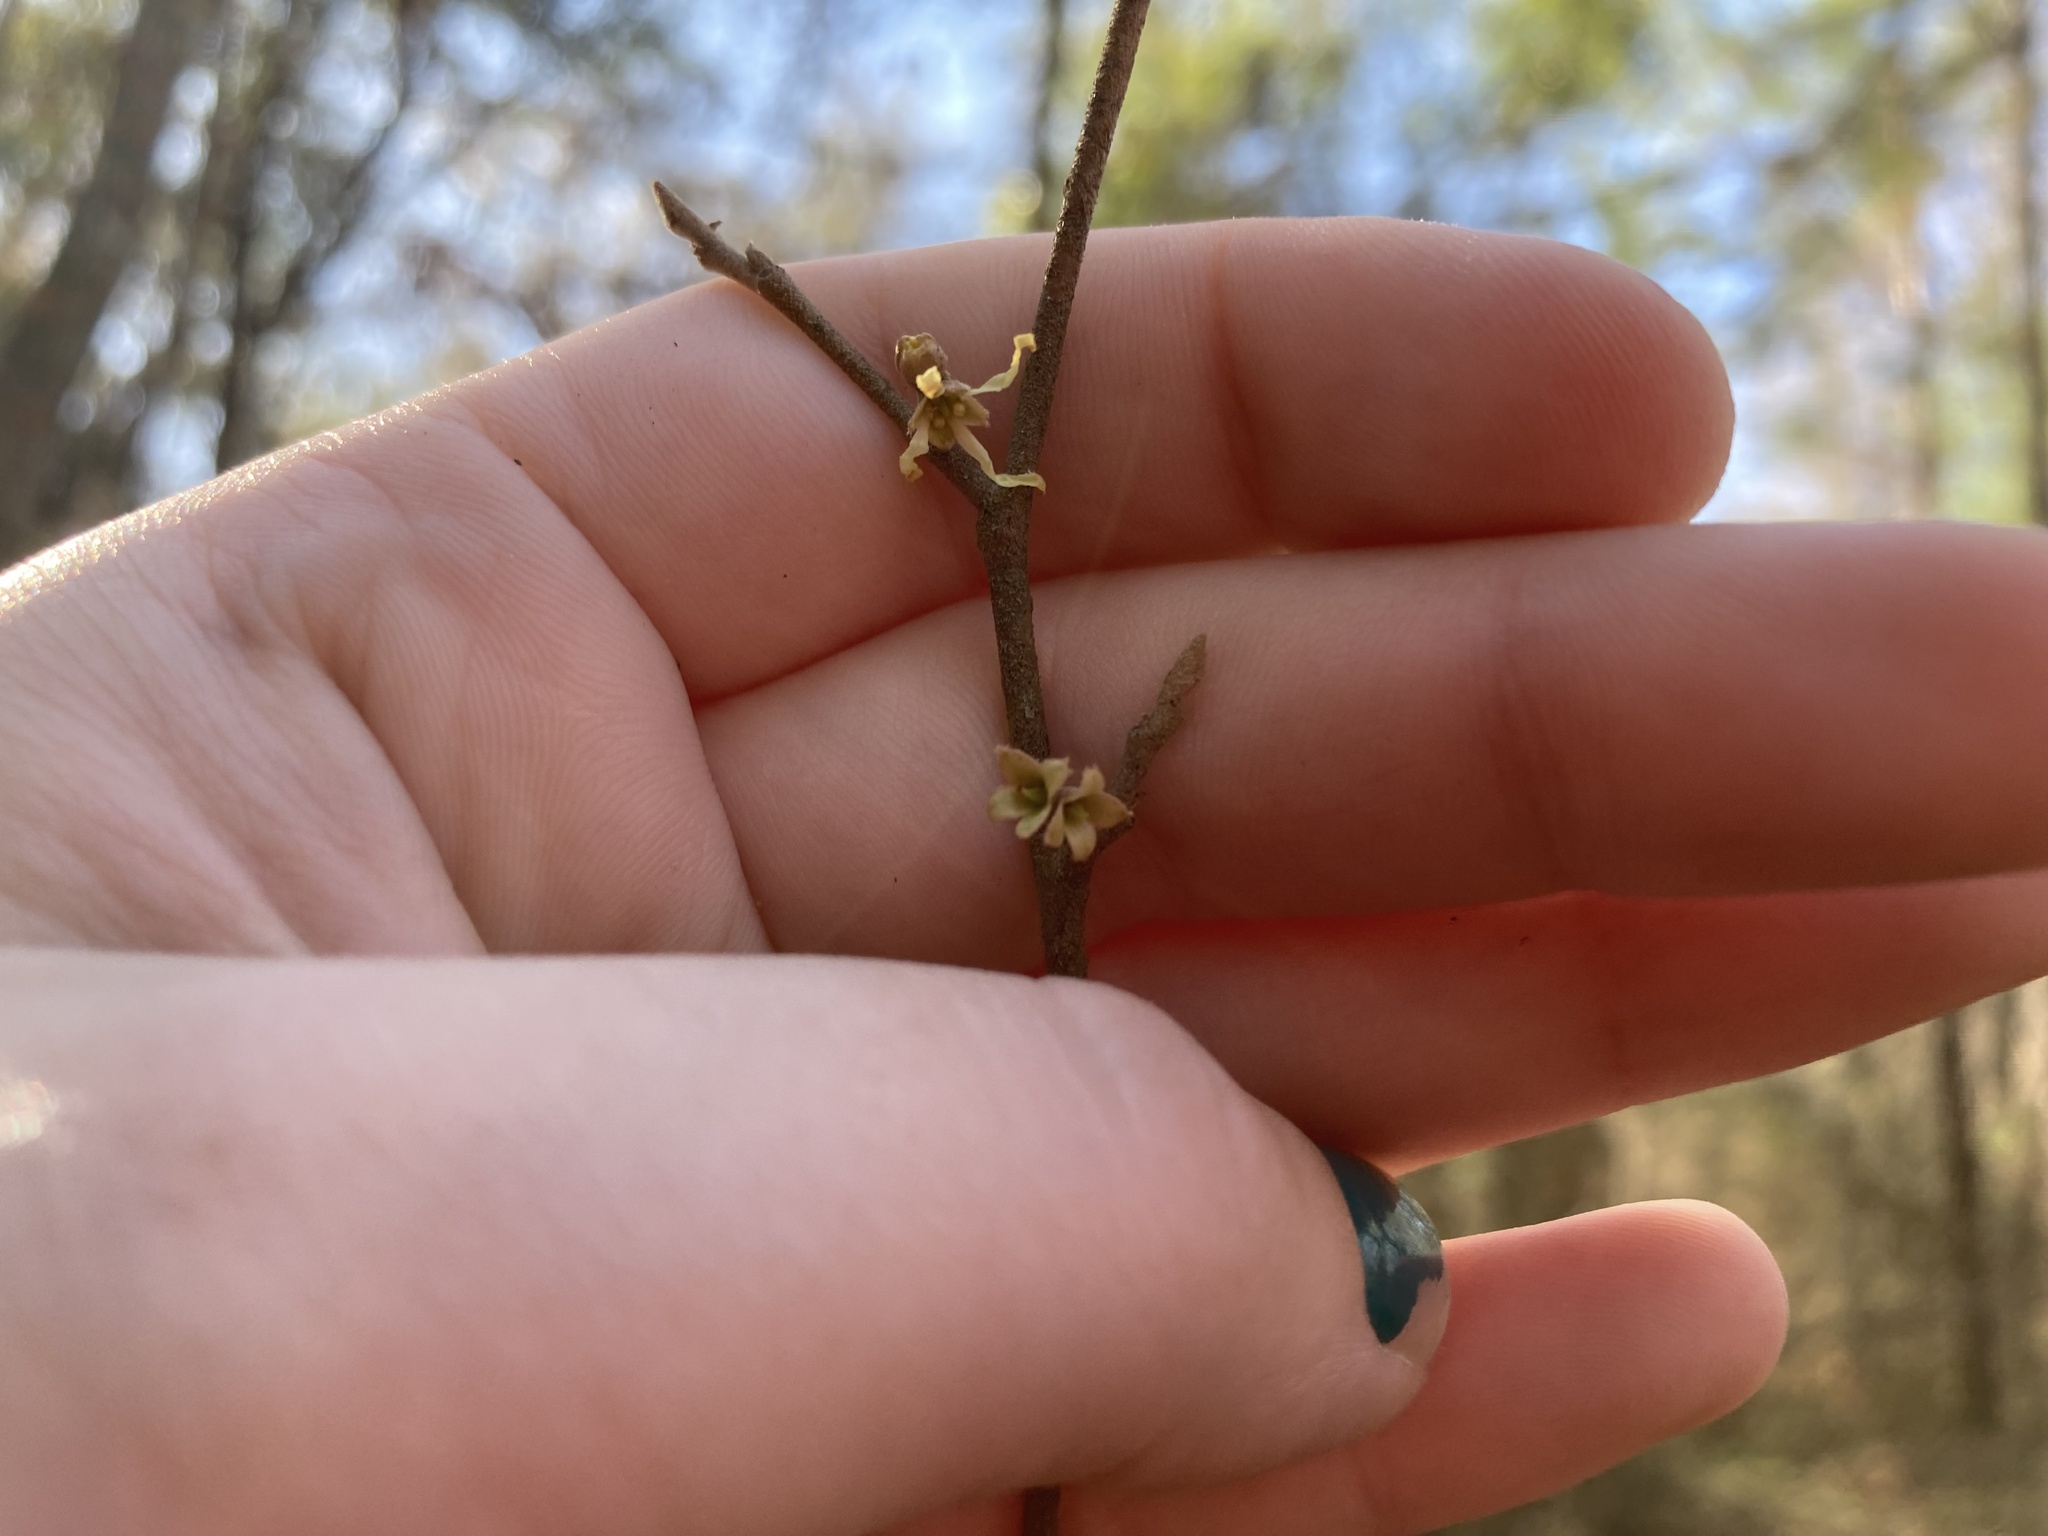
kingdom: Plantae
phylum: Tracheophyta
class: Magnoliopsida
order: Saxifragales
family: Hamamelidaceae
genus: Hamamelis
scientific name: Hamamelis virginiana
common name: Witch-hazel
